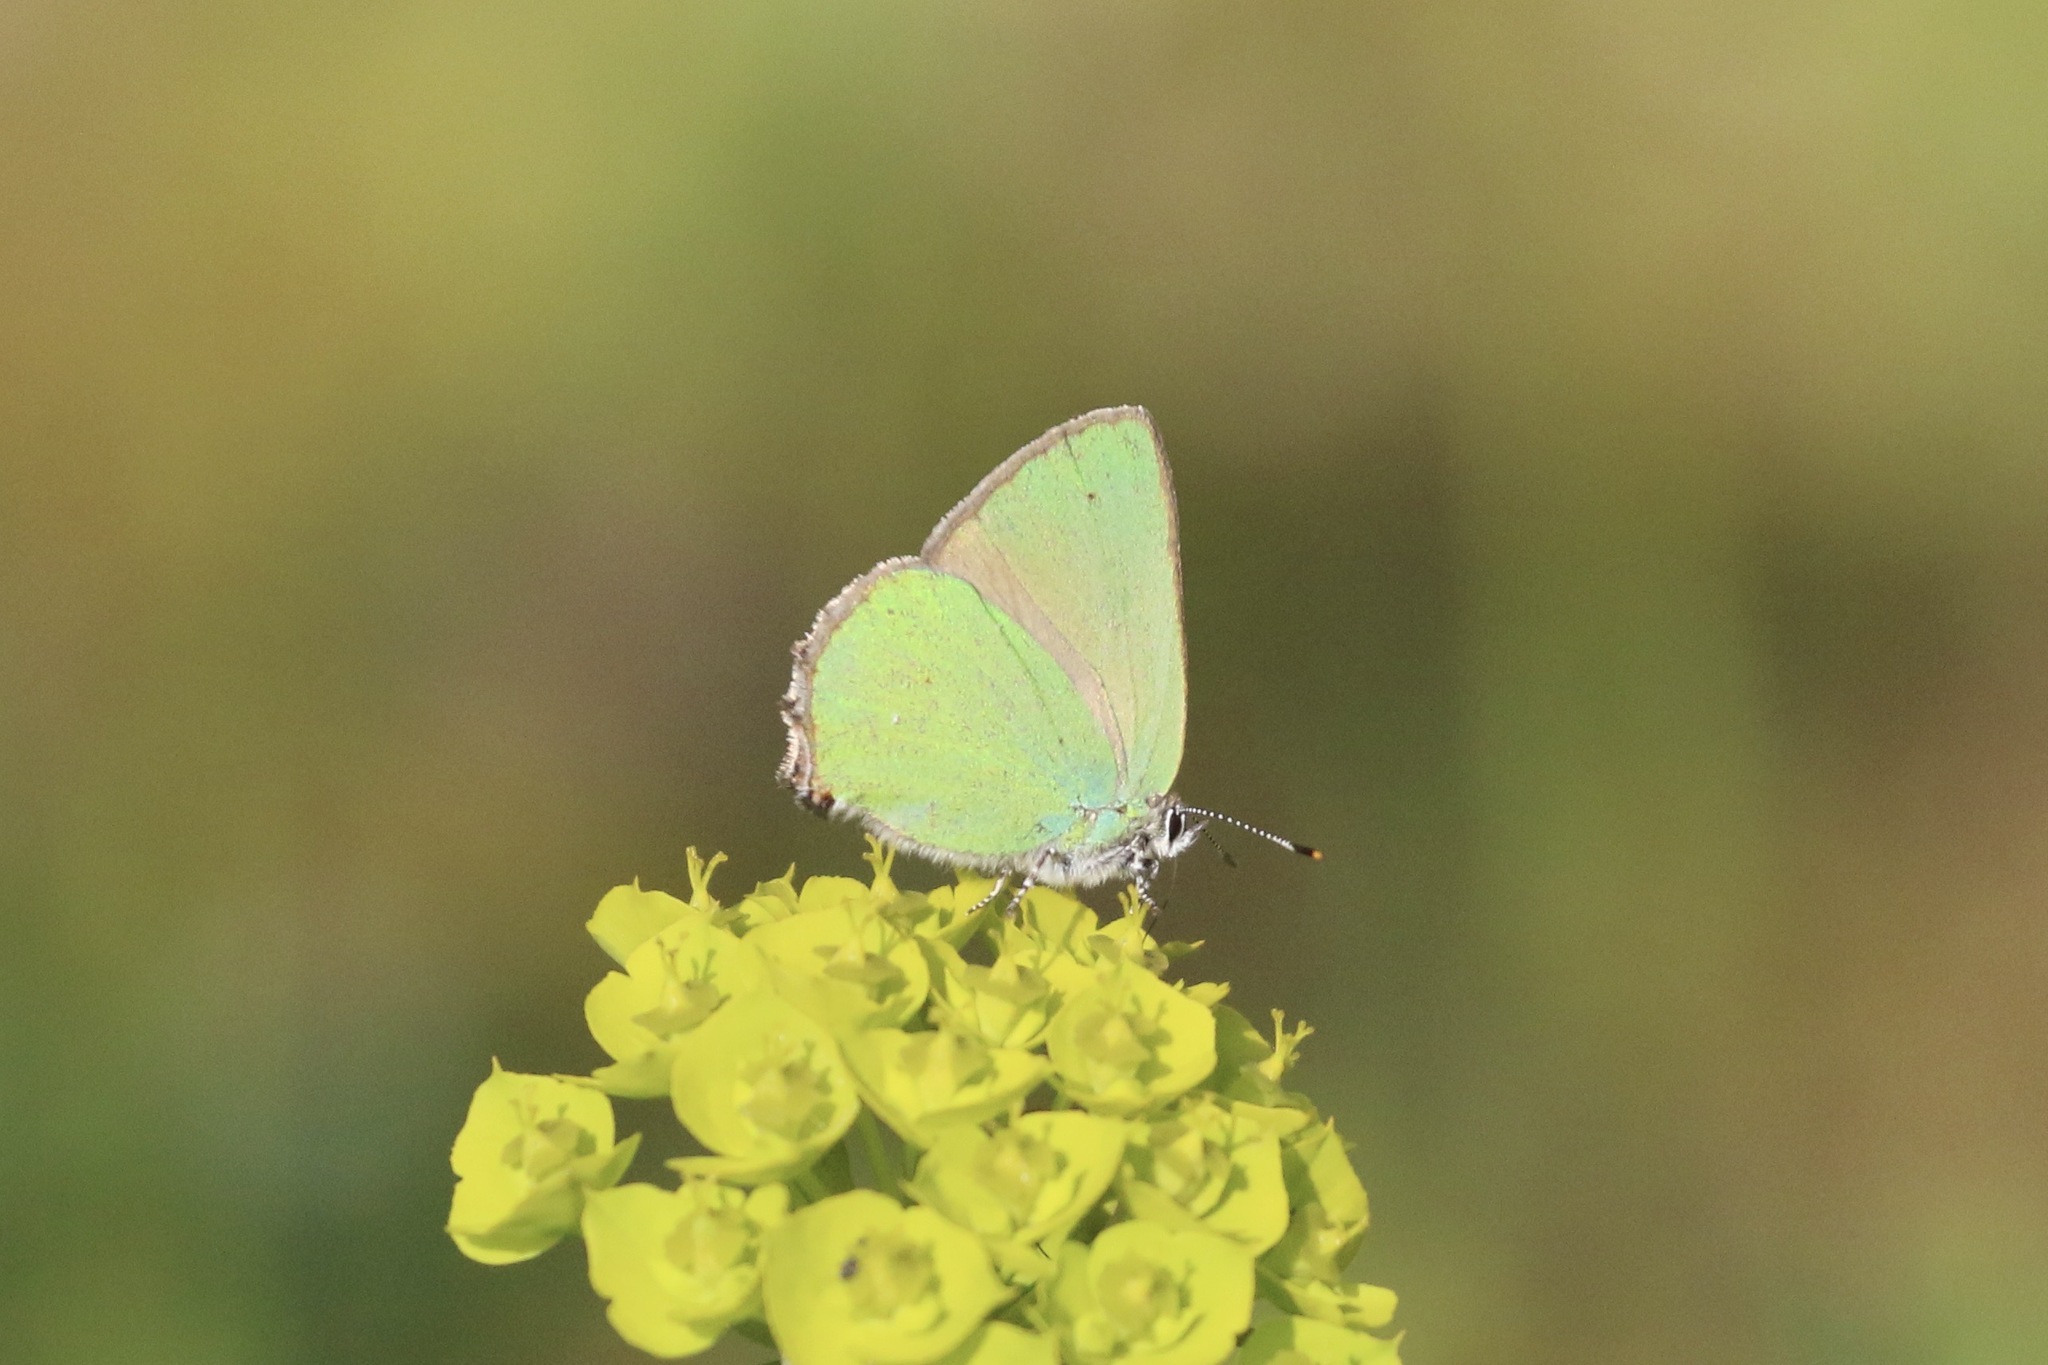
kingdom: Animalia
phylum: Arthropoda
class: Insecta
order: Lepidoptera
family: Lycaenidae
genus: Callophrys
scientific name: Callophrys rubi
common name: Green hairstreak
